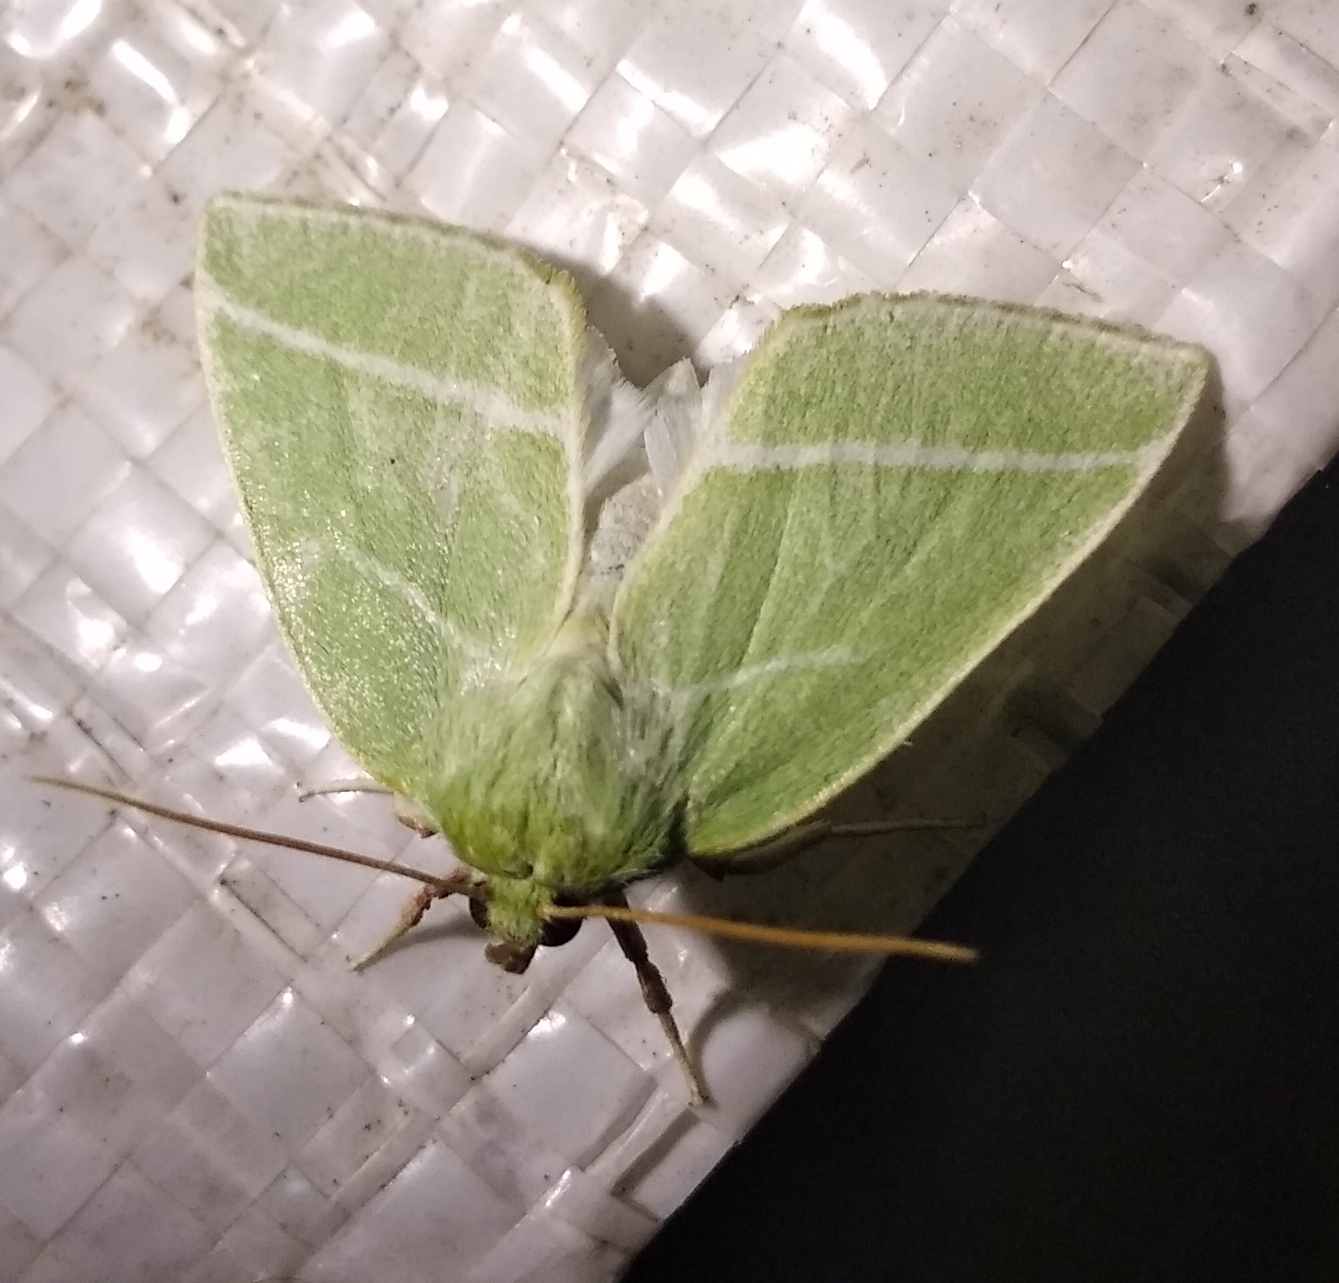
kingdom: Animalia
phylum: Arthropoda
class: Insecta
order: Lepidoptera
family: Nolidae
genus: Pseudoips
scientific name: Pseudoips prasinana
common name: Green silver-lines
